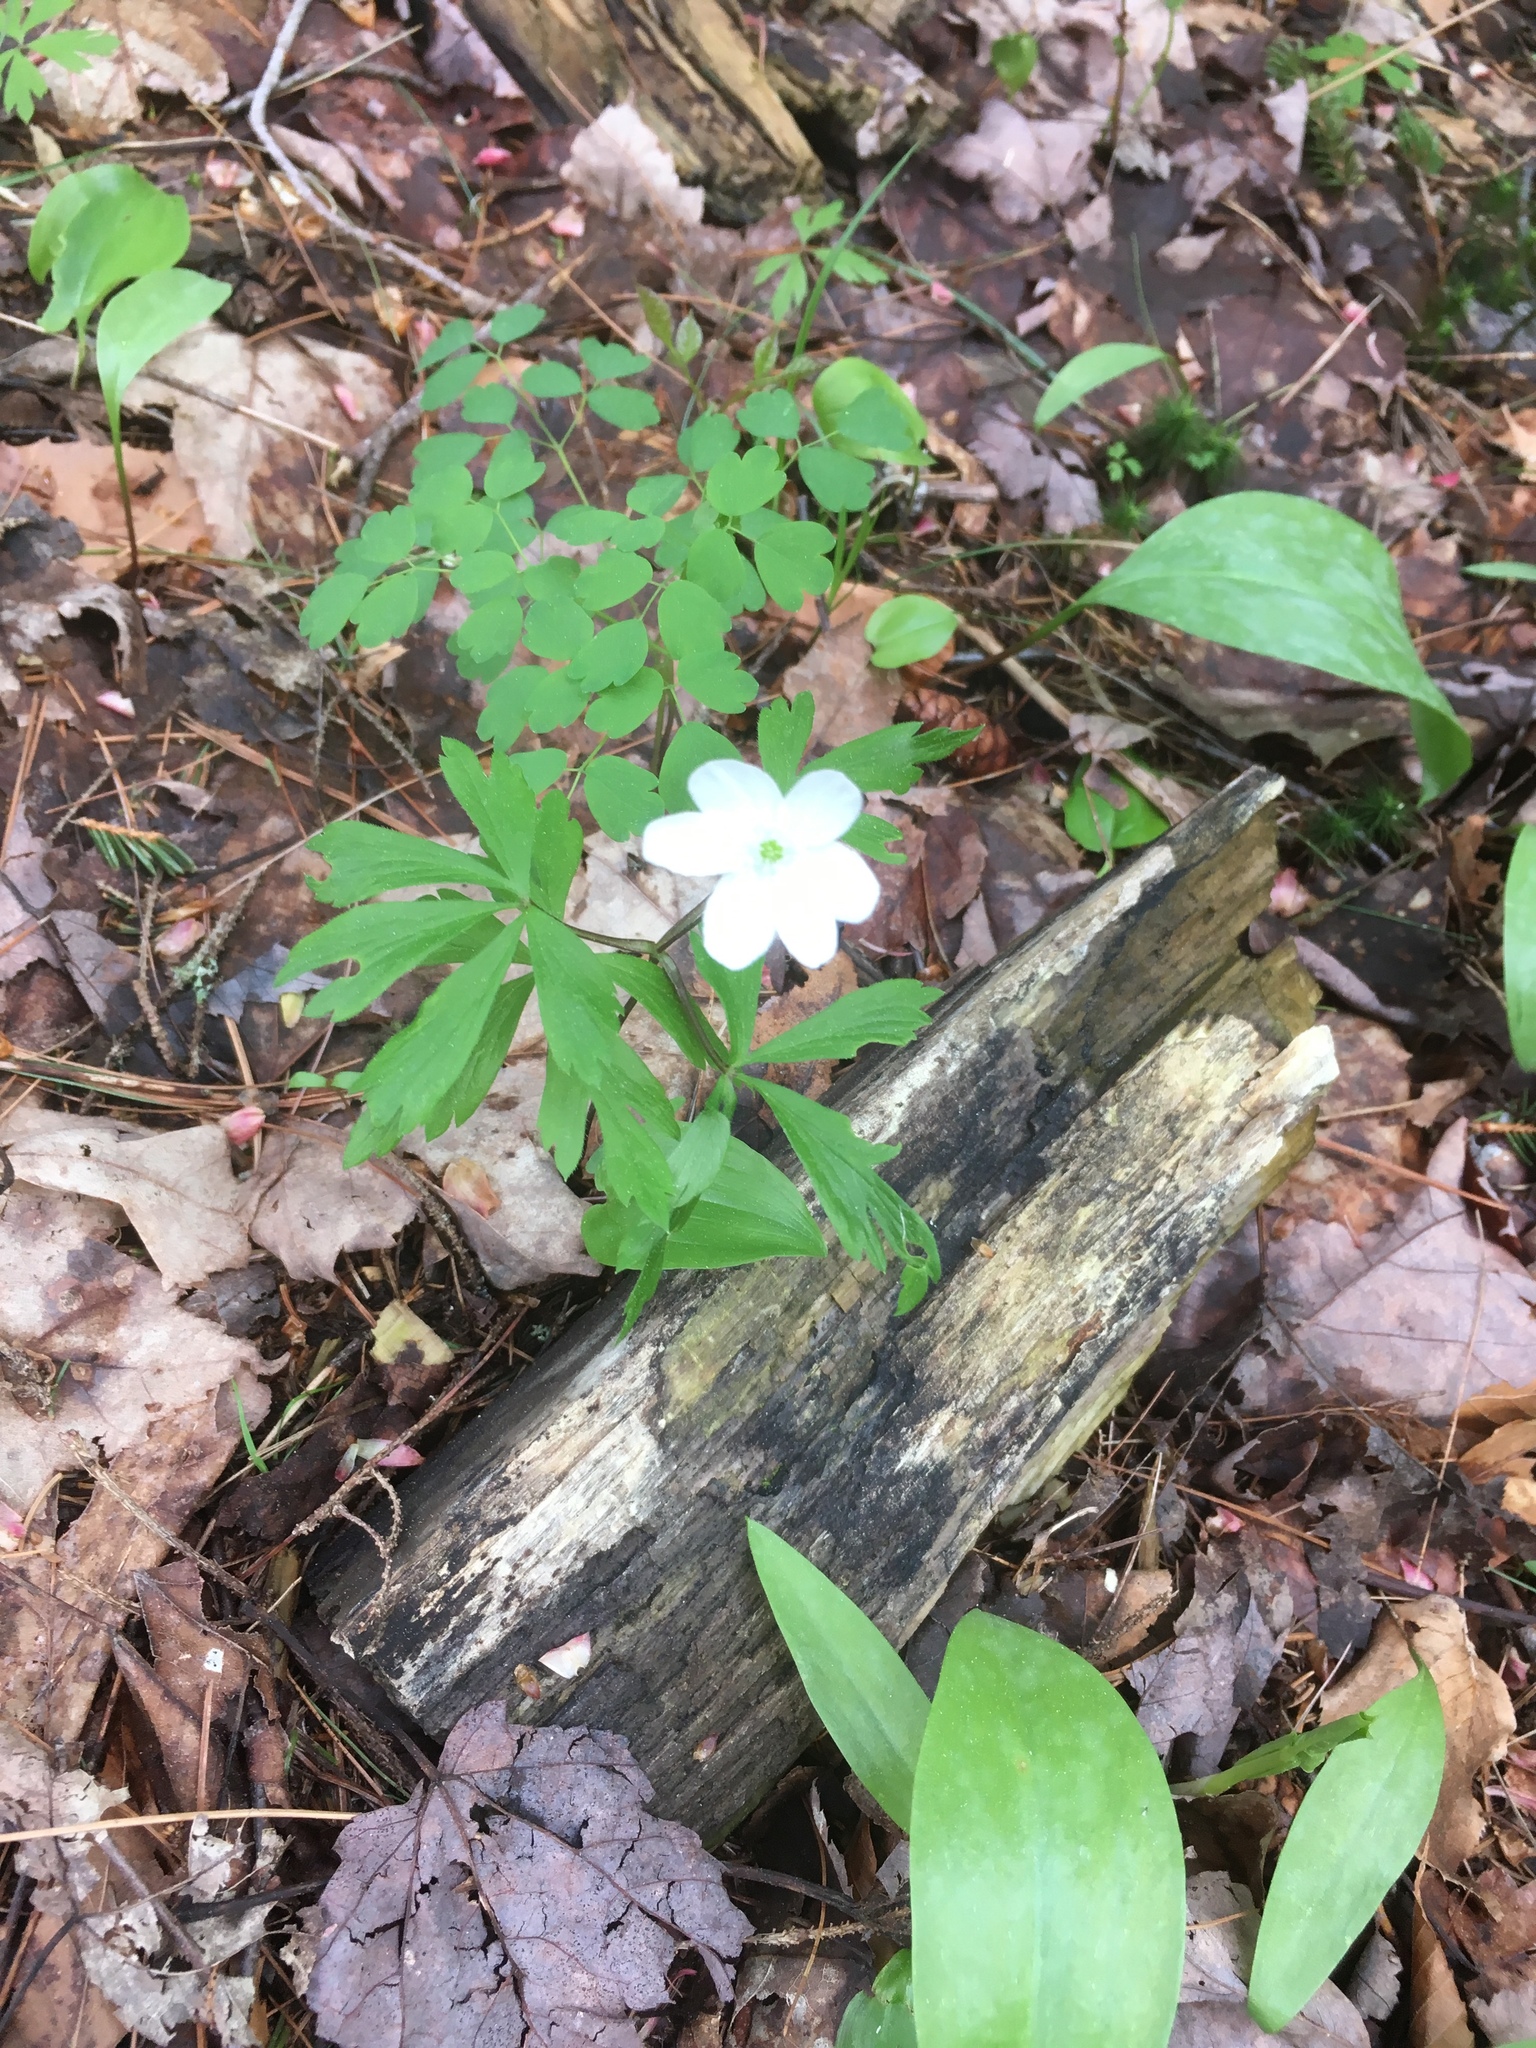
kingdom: Plantae
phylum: Tracheophyta
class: Magnoliopsida
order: Ranunculales
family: Ranunculaceae
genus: Anemone
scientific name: Anemone quinquefolia
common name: Wood anemone
